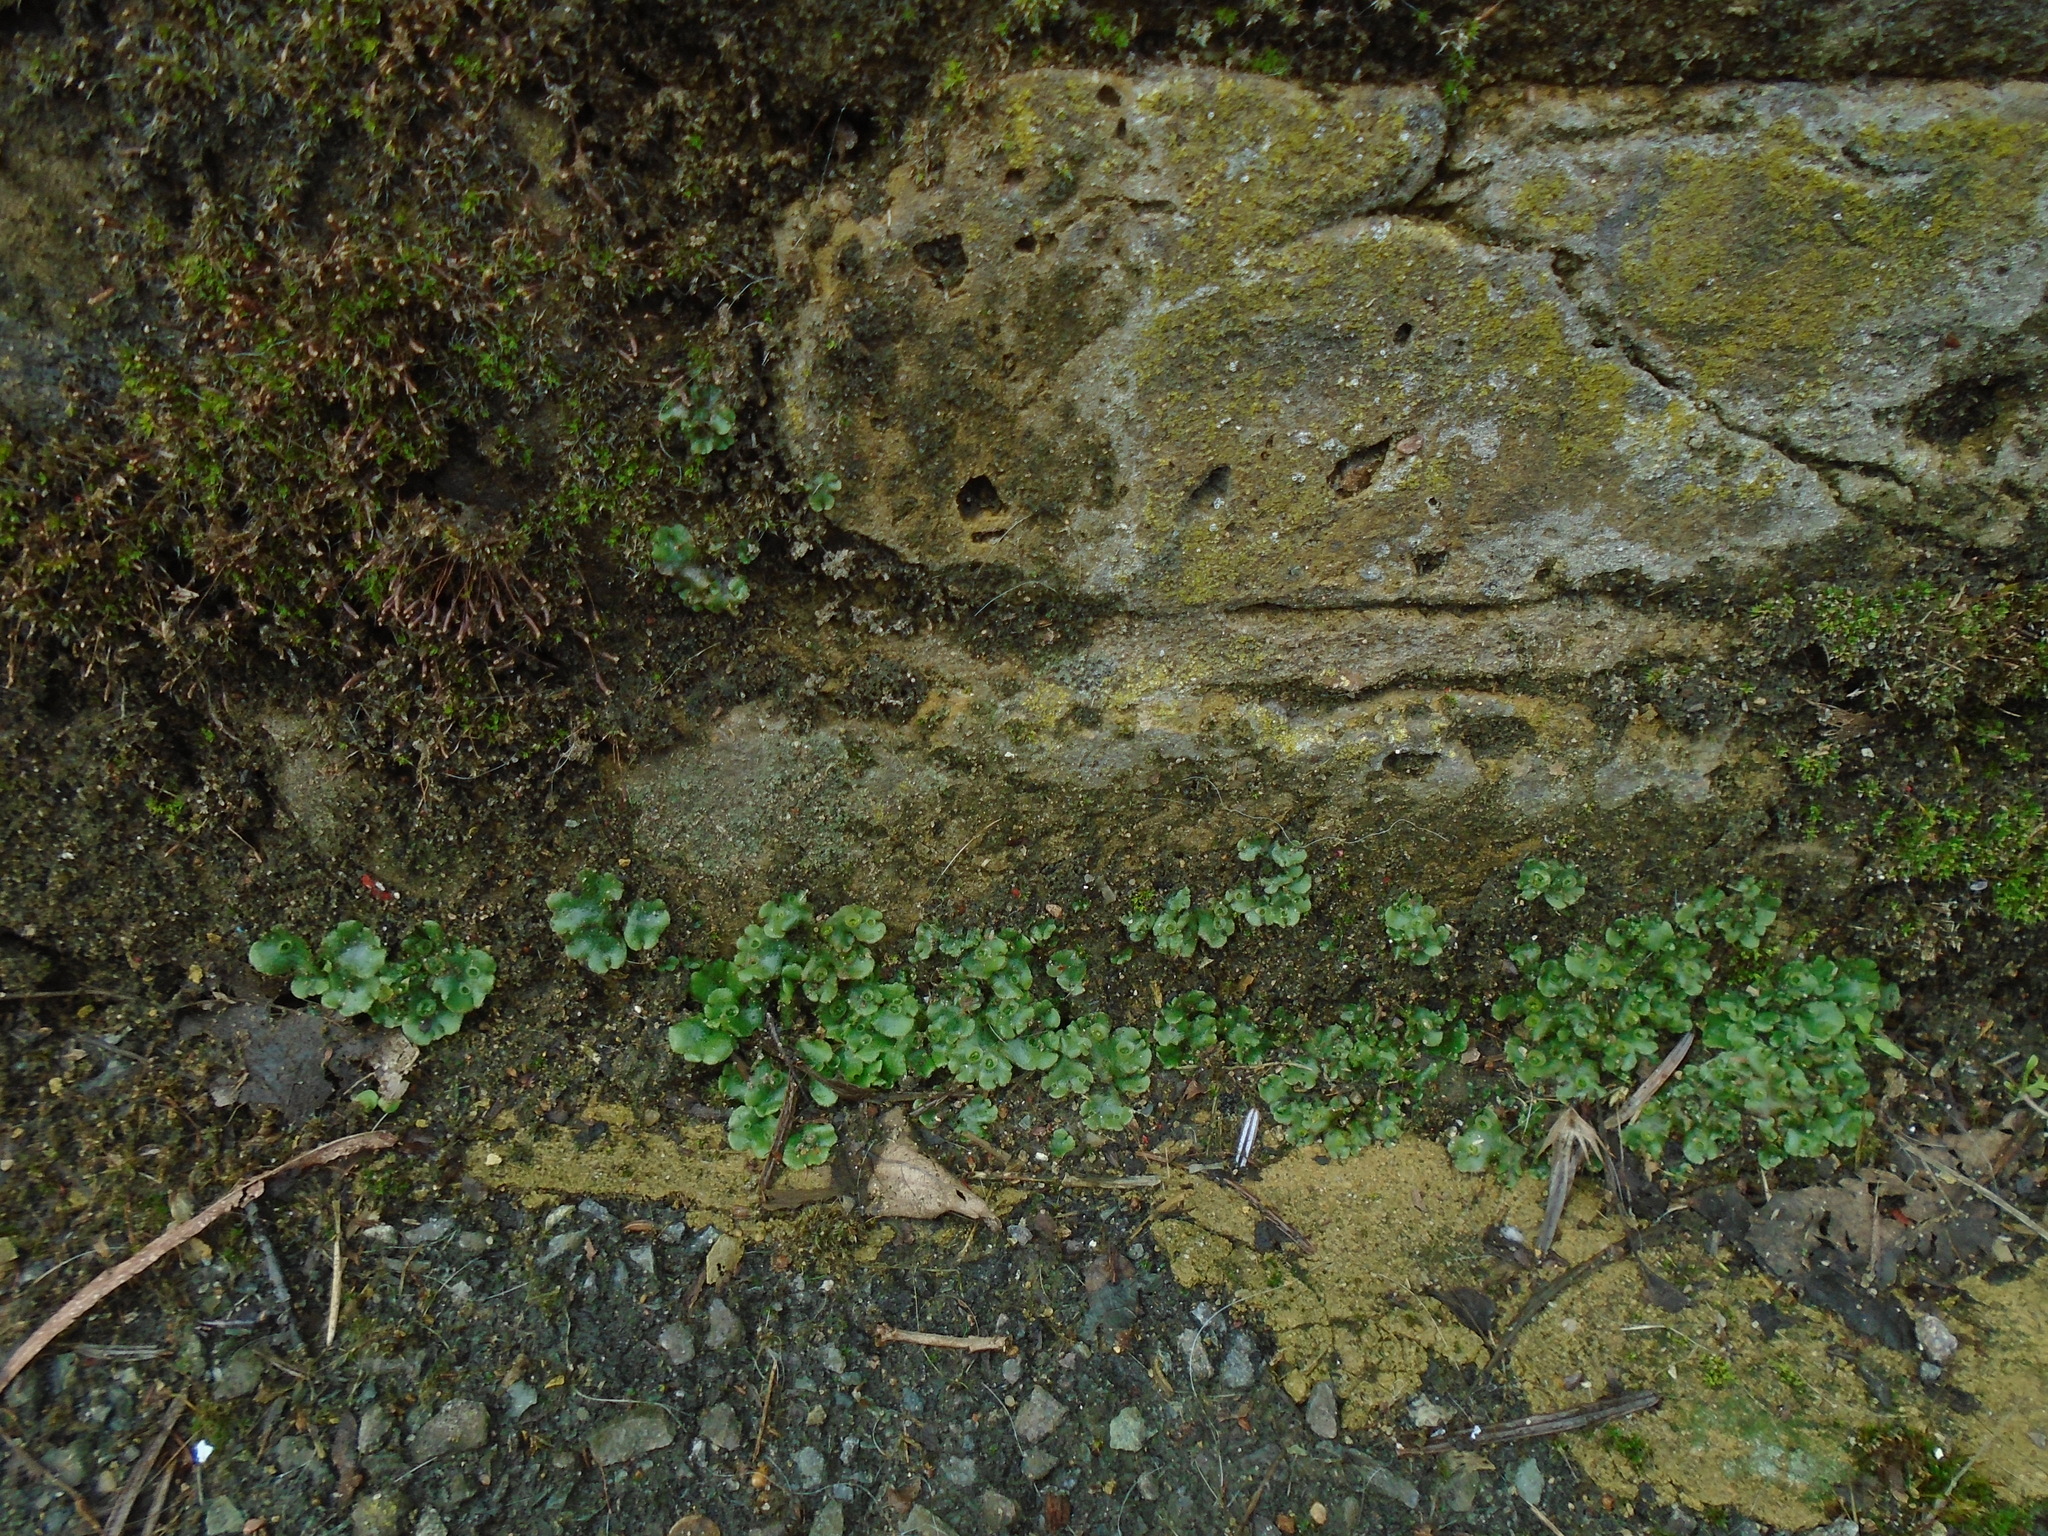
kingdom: Plantae
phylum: Marchantiophyta
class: Marchantiopsida
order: Marchantiales
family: Marchantiaceae
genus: Marchantia
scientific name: Marchantia polymorpha
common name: Common liverwort
